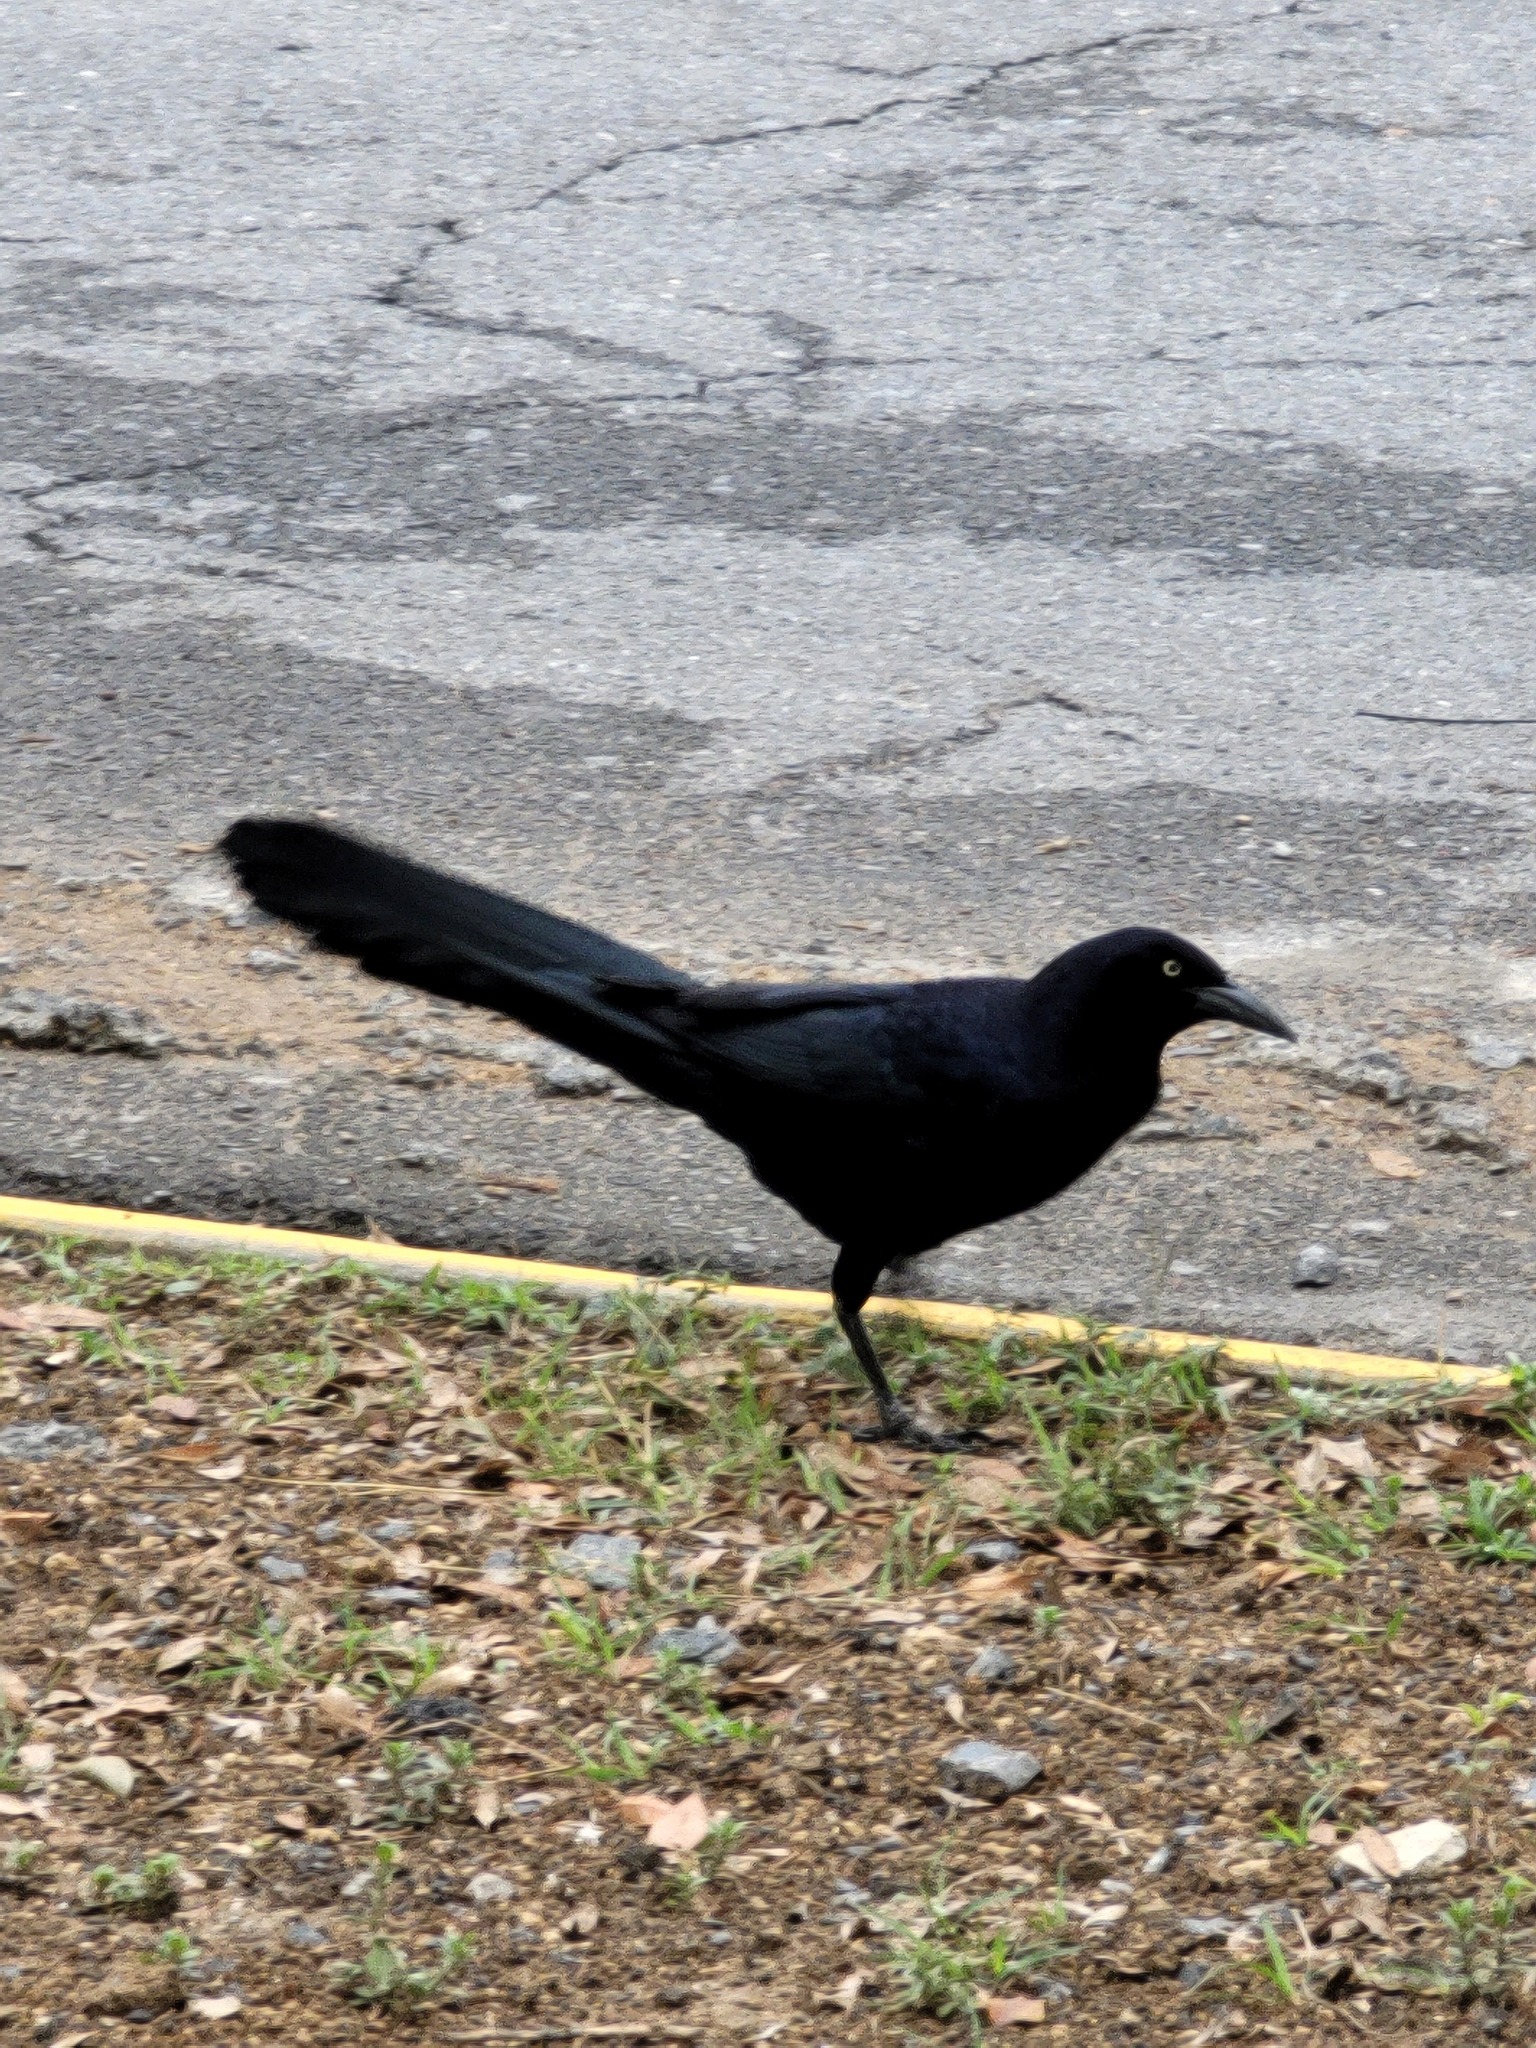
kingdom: Animalia
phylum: Chordata
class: Aves
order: Passeriformes
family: Icteridae
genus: Quiscalus
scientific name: Quiscalus mexicanus
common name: Great-tailed grackle
